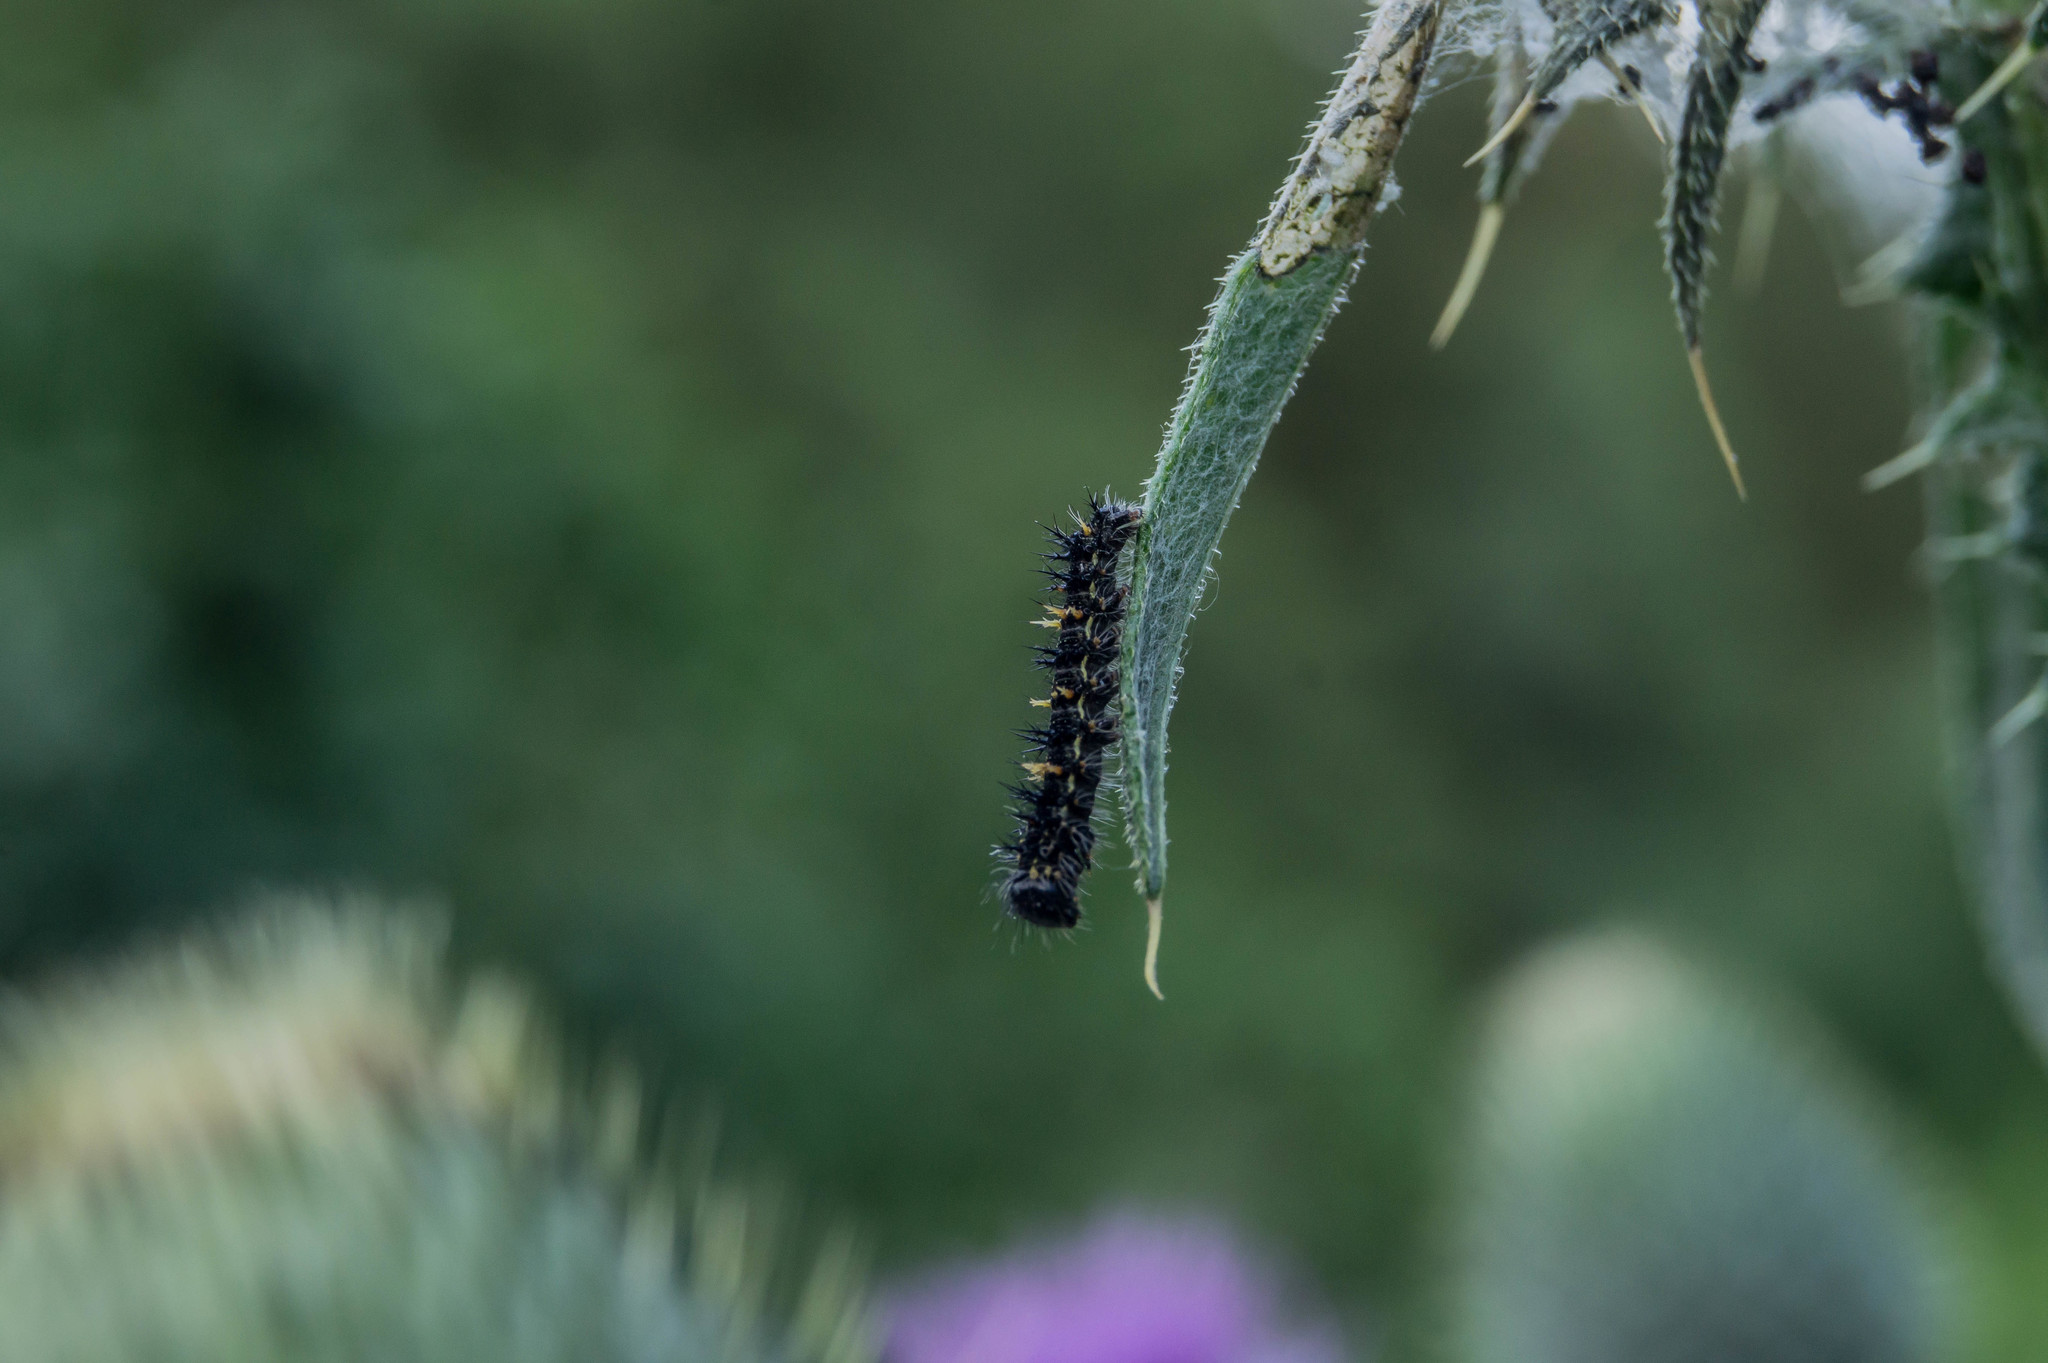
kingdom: Animalia
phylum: Arthropoda
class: Insecta
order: Lepidoptera
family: Nymphalidae
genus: Vanessa
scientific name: Vanessa cardui
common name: Painted lady
